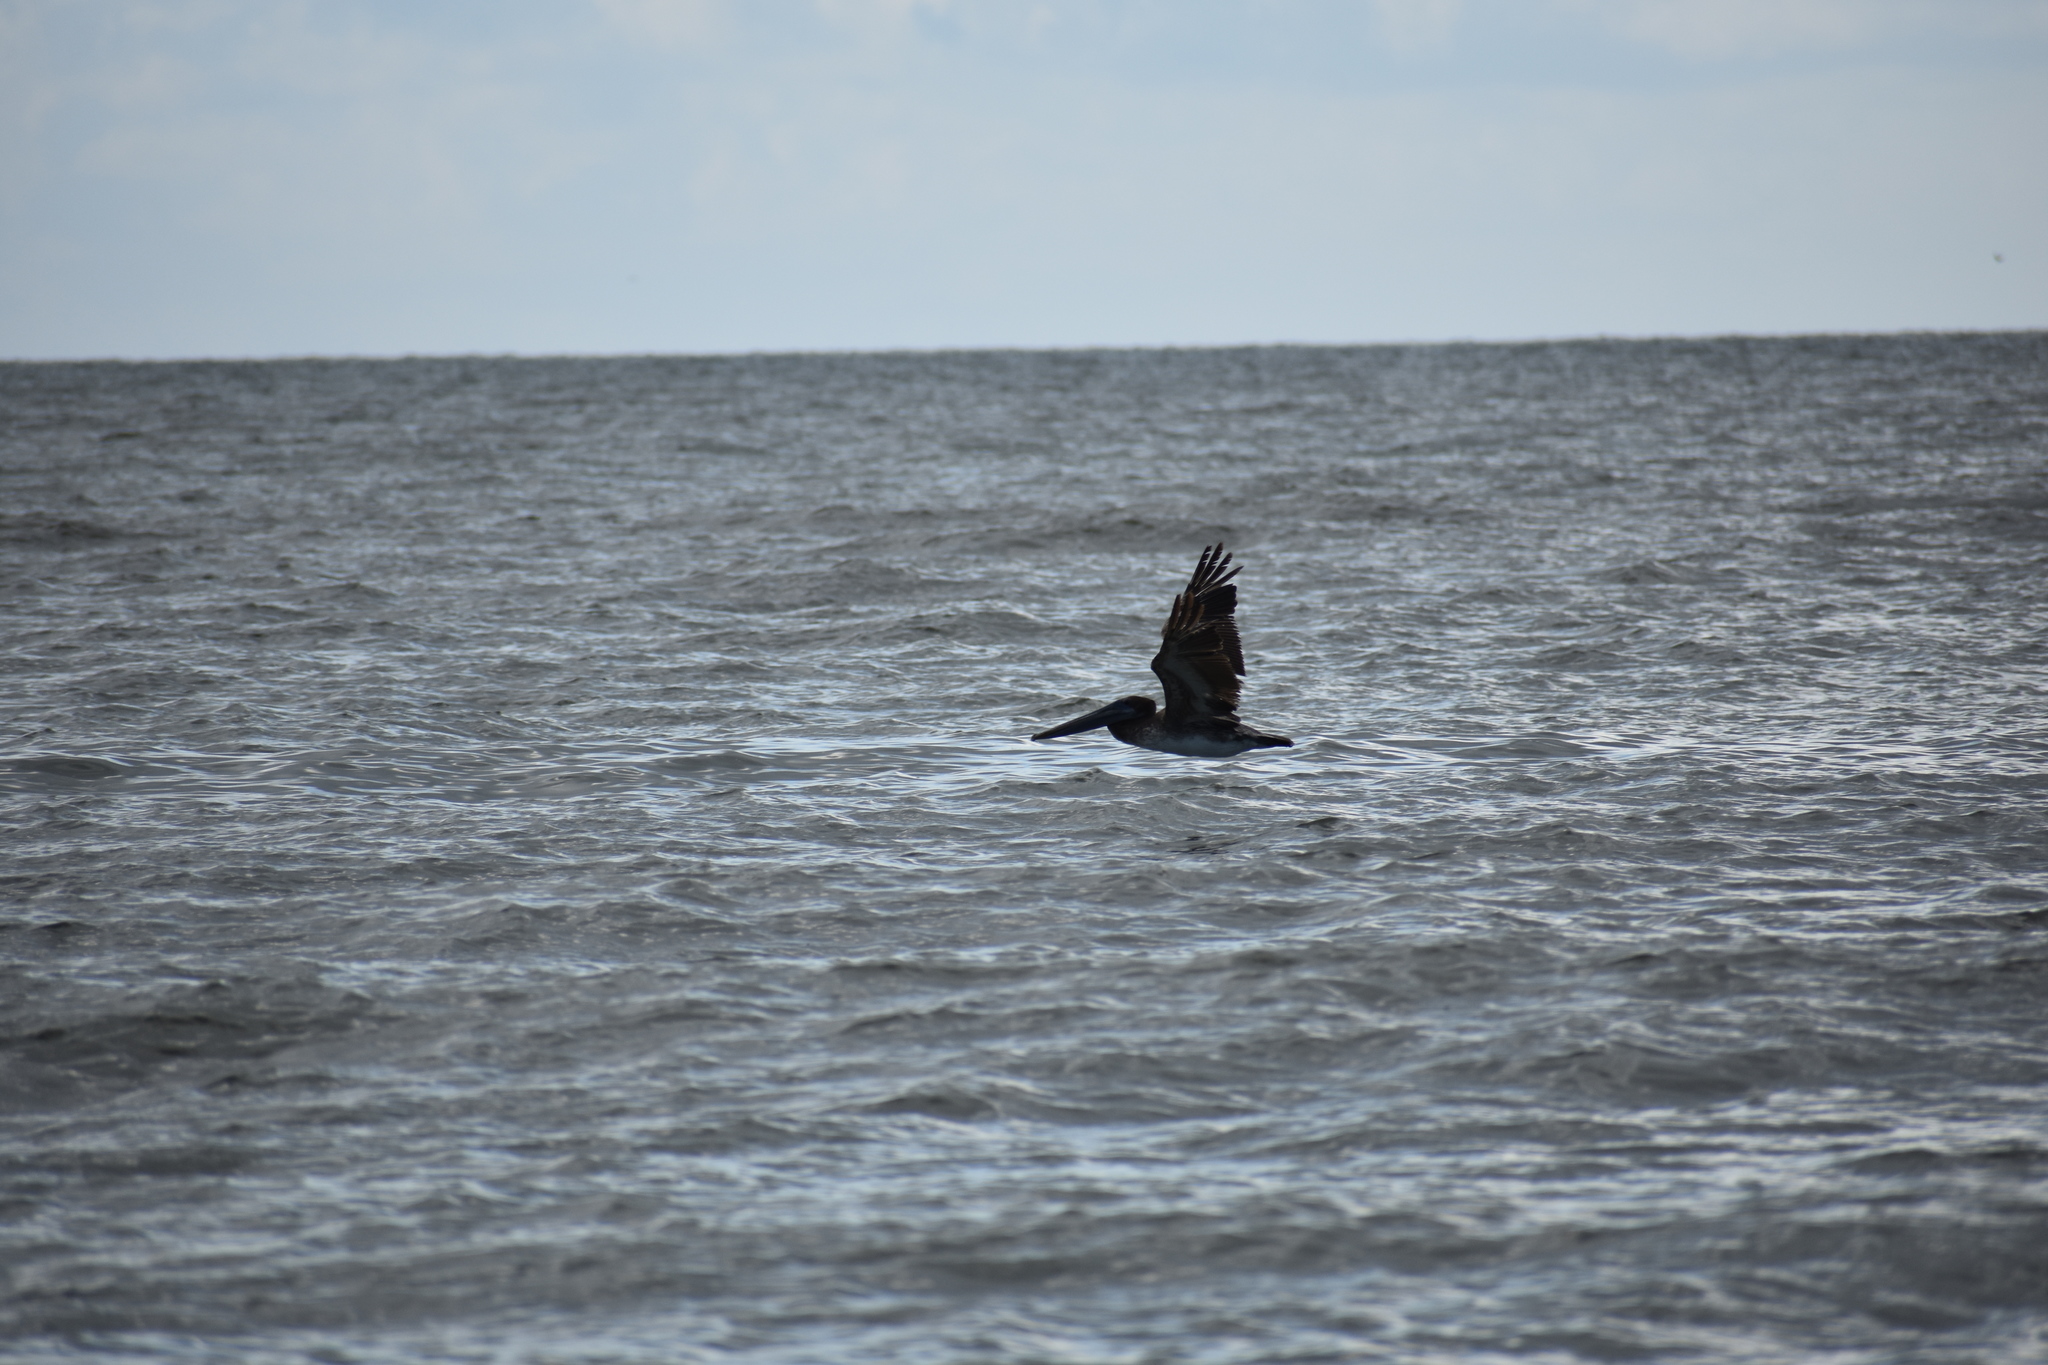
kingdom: Animalia
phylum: Chordata
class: Aves
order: Pelecaniformes
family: Pelecanidae
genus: Pelecanus
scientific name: Pelecanus occidentalis
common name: Brown pelican
